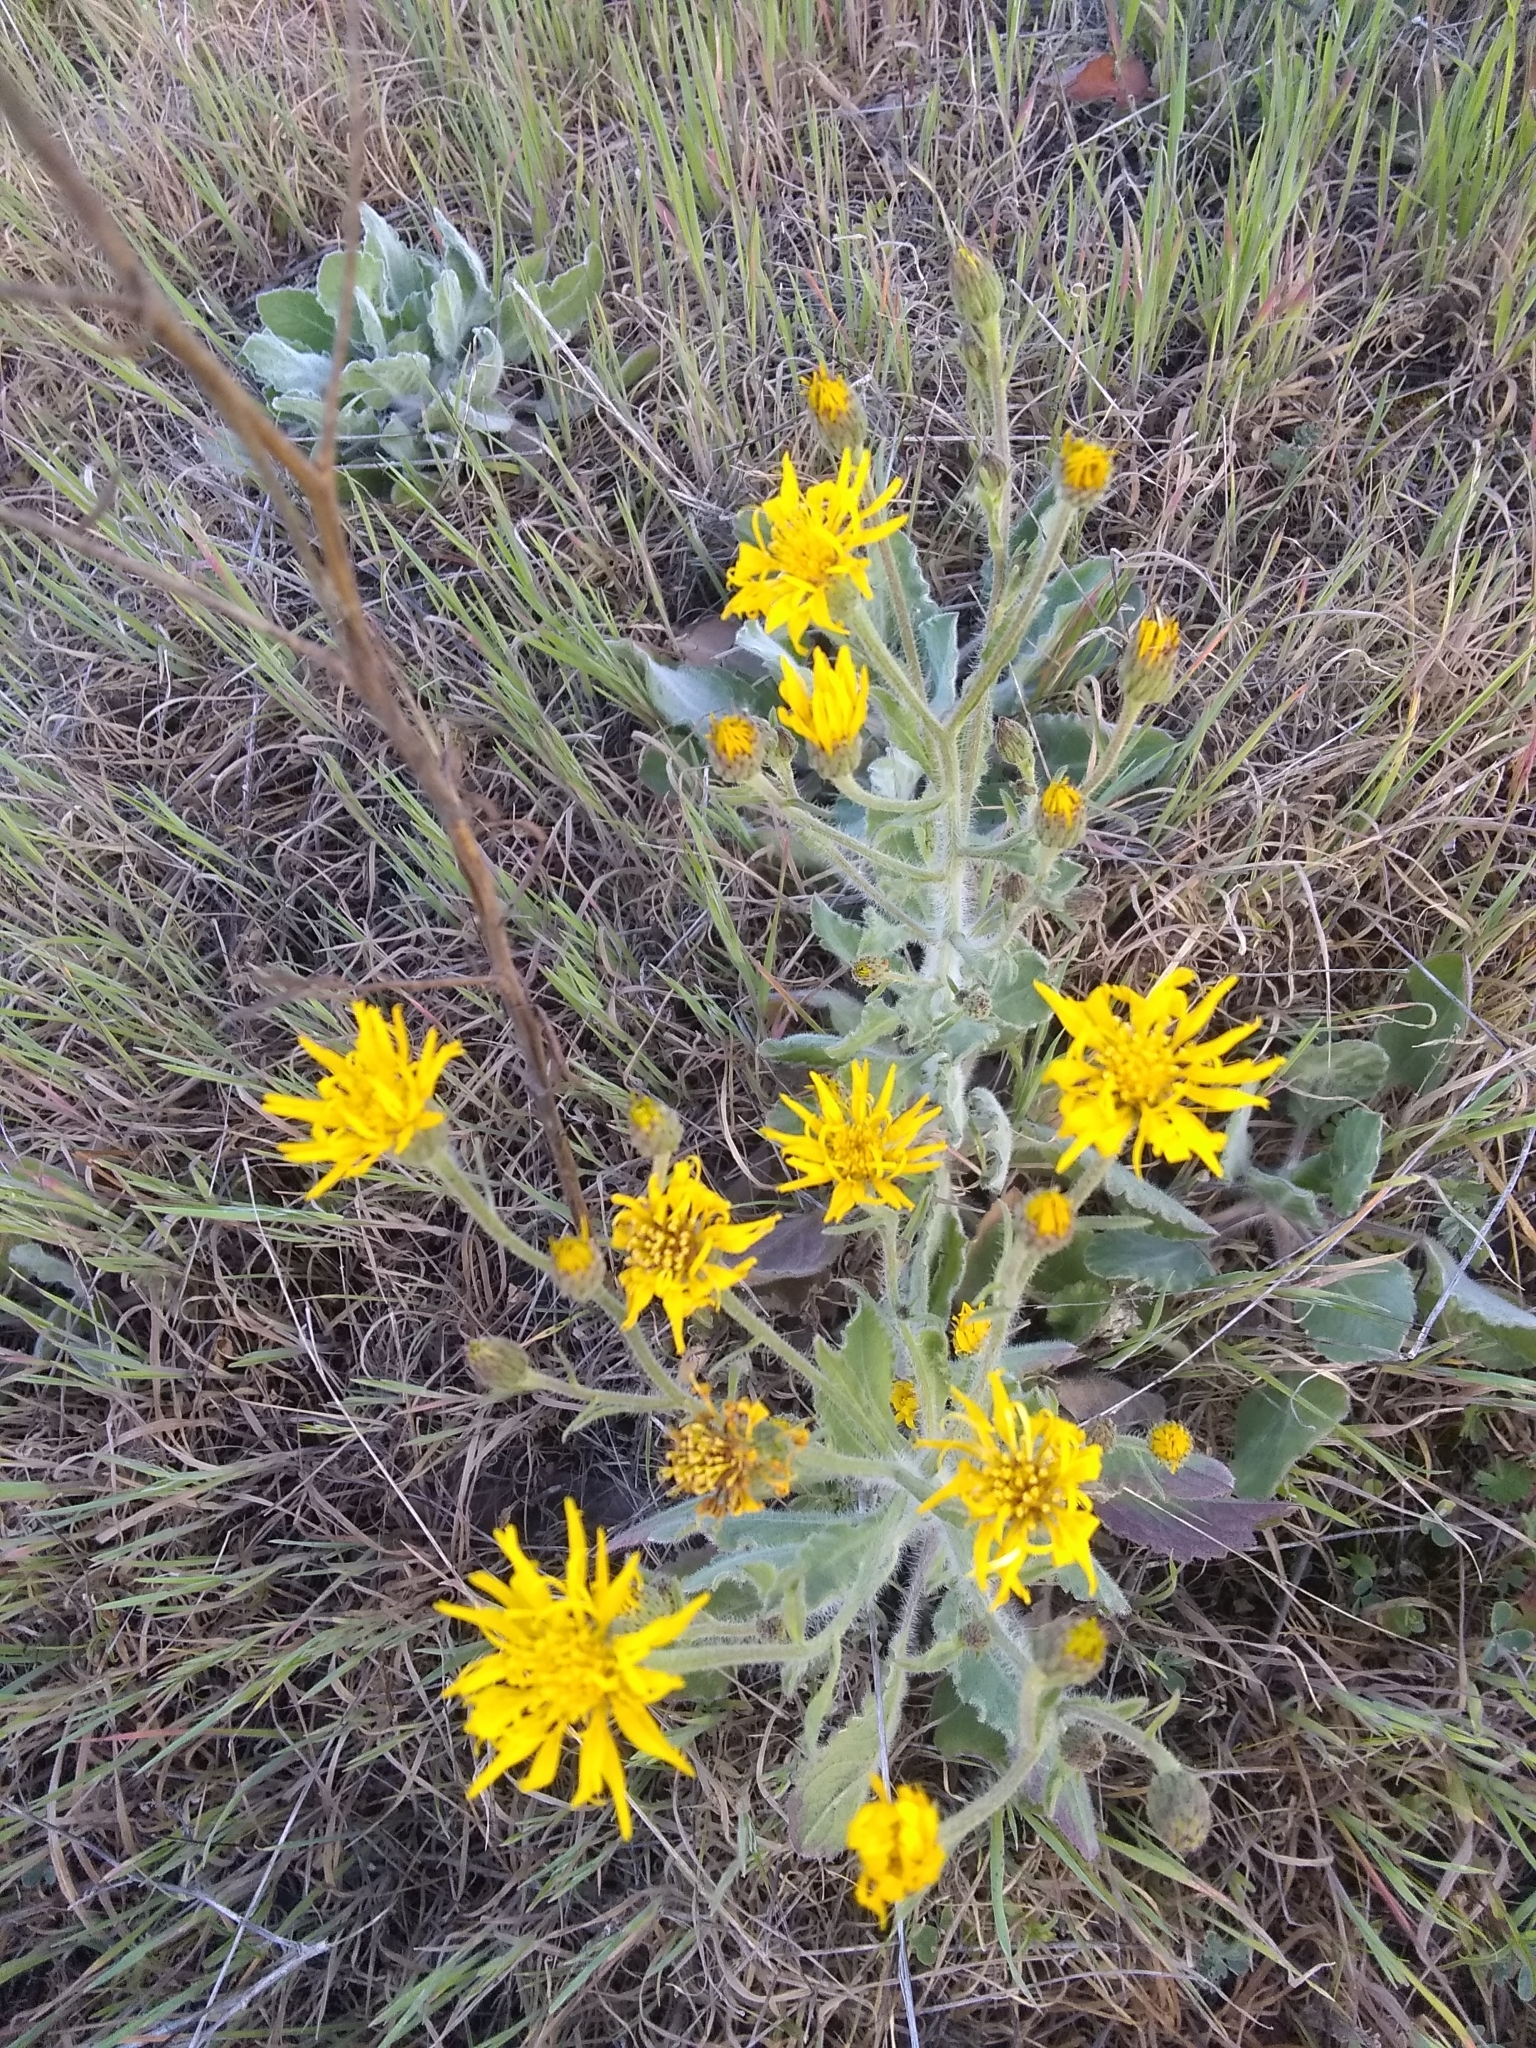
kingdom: Plantae
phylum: Tracheophyta
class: Magnoliopsida
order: Asterales
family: Asteraceae
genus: Heterotheca
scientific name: Heterotheca grandiflora
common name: Telegraphweed
